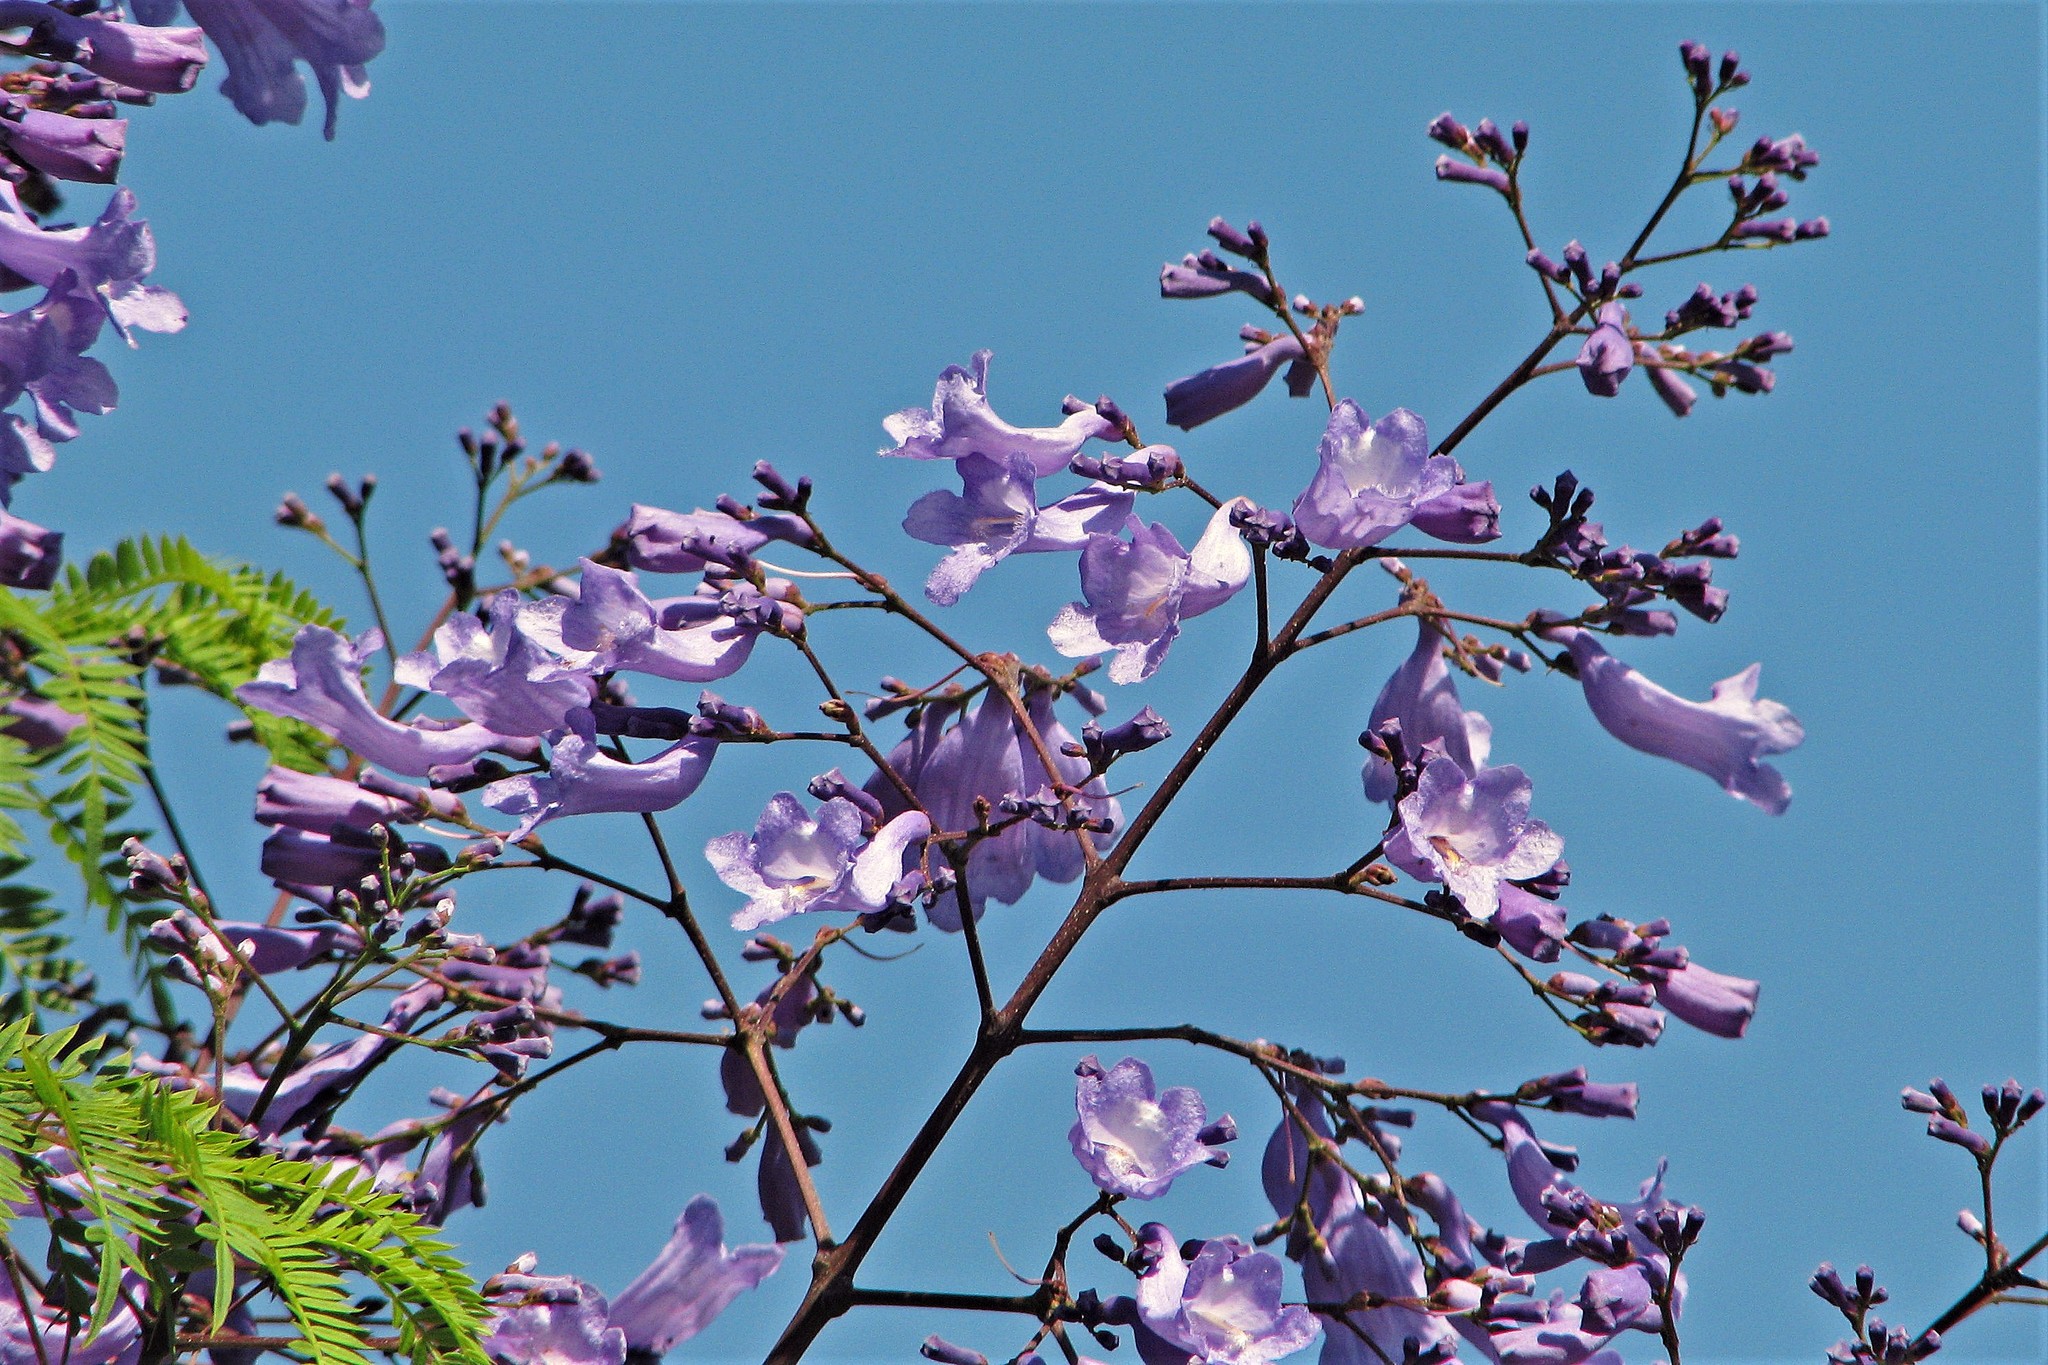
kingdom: Plantae
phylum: Tracheophyta
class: Magnoliopsida
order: Lamiales
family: Bignoniaceae
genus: Jacaranda
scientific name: Jacaranda mimosifolia
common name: Black poui
